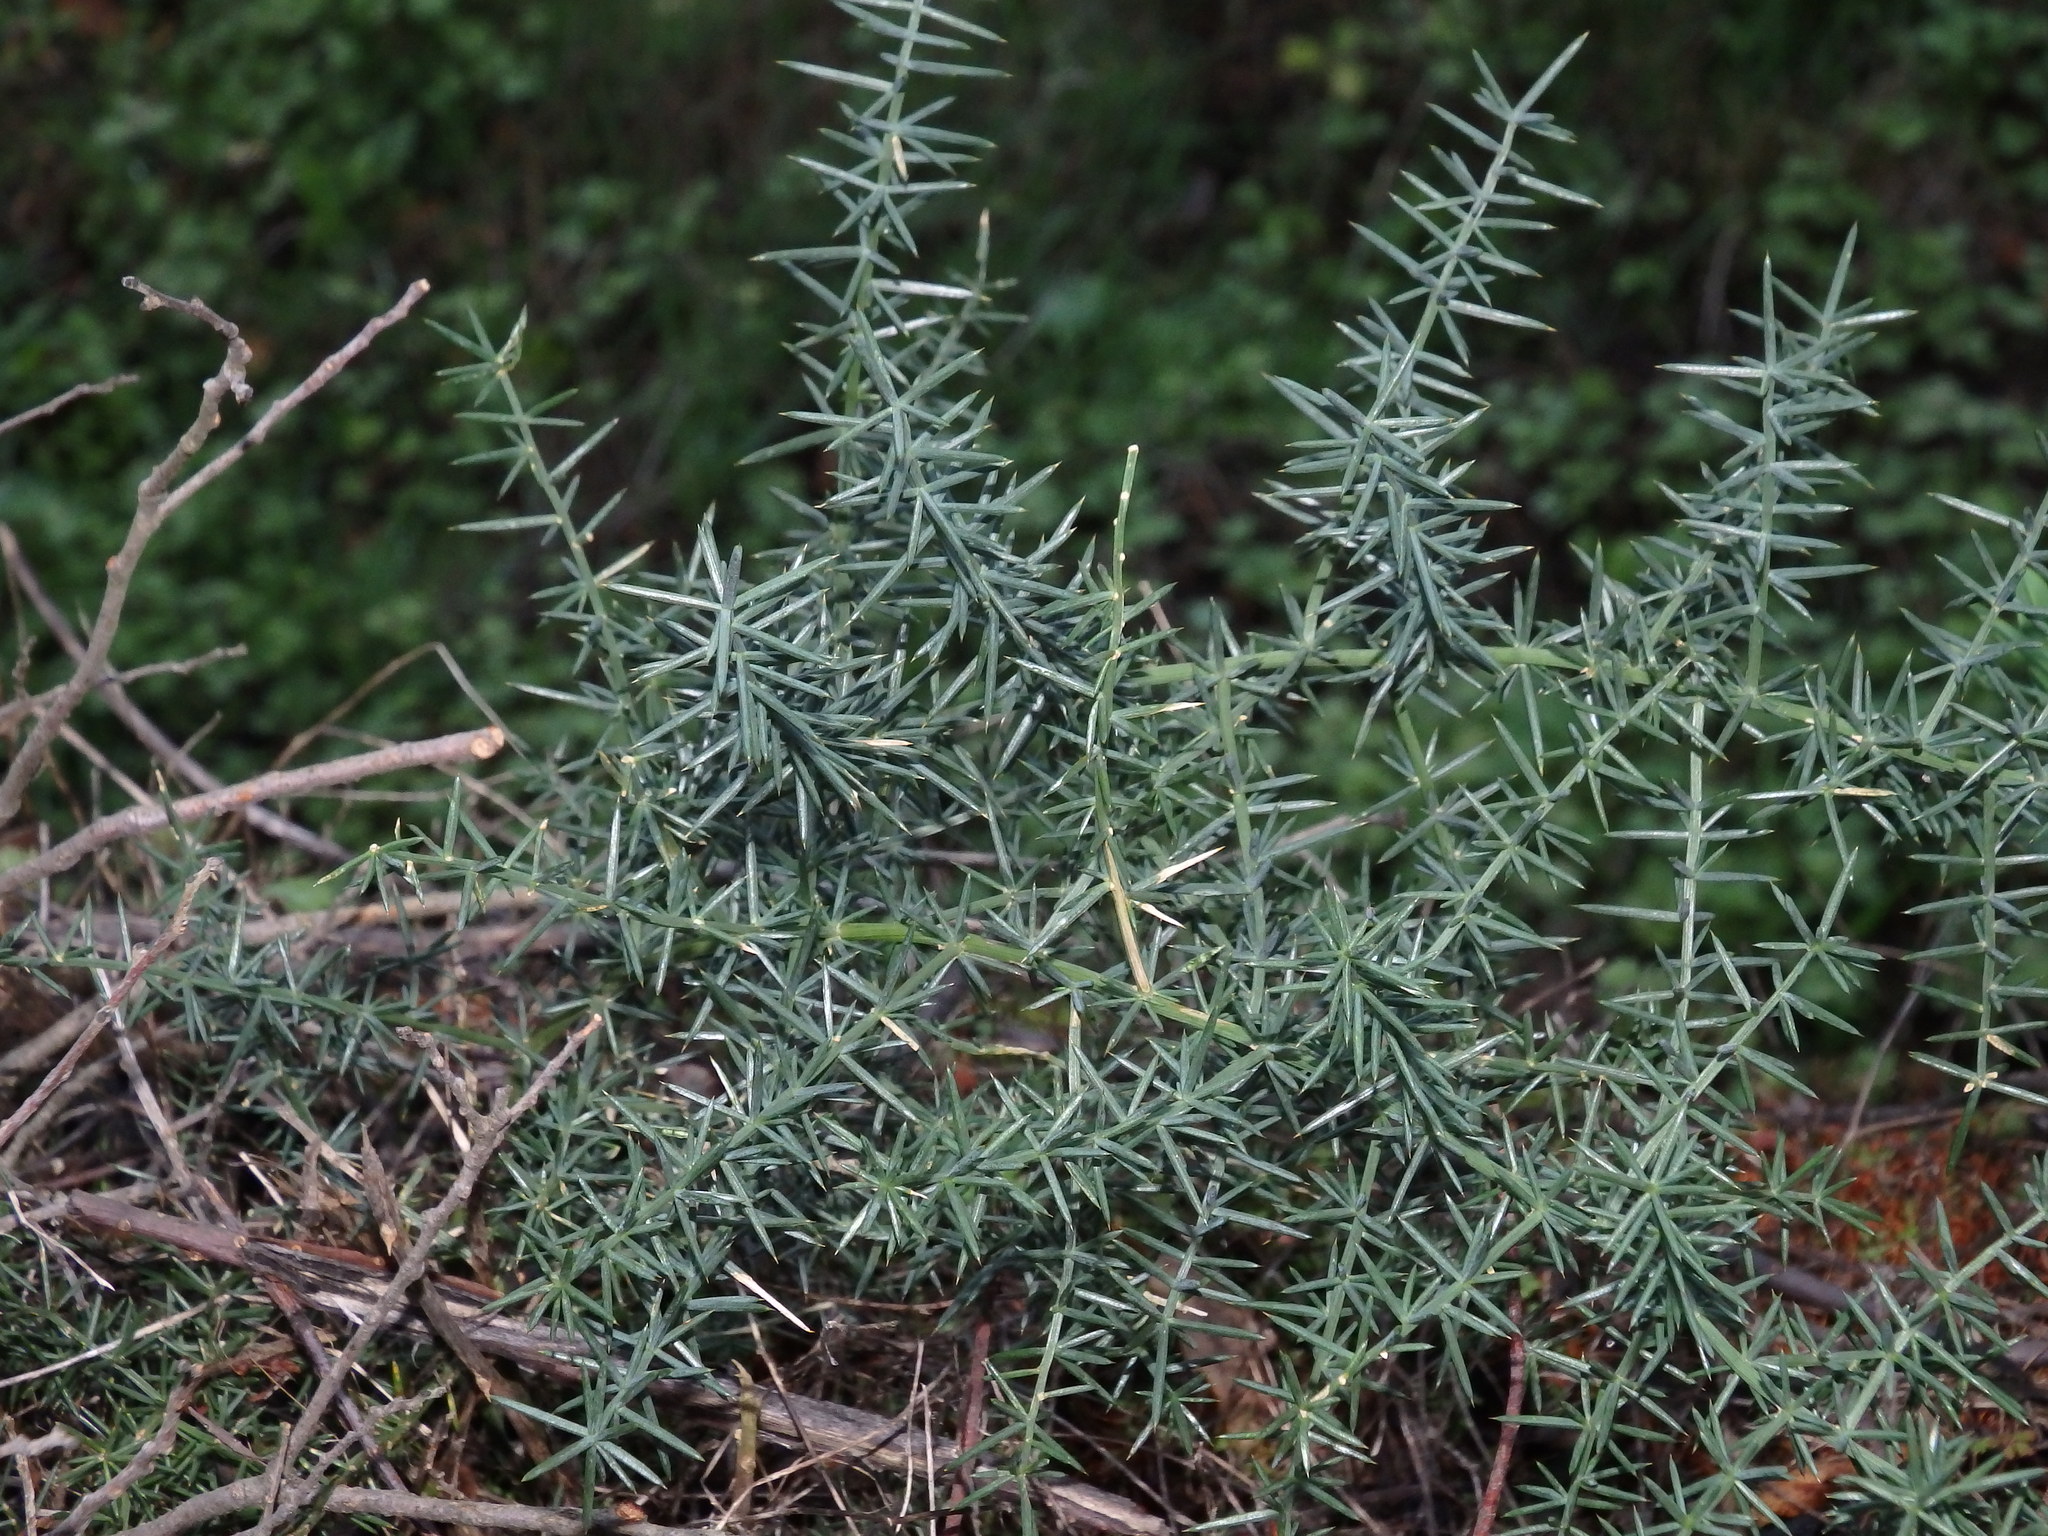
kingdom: Plantae
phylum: Tracheophyta
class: Liliopsida
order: Asparagales
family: Asparagaceae
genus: Asparagus
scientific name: Asparagus aphyllus
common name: Mediterranean asparagus
